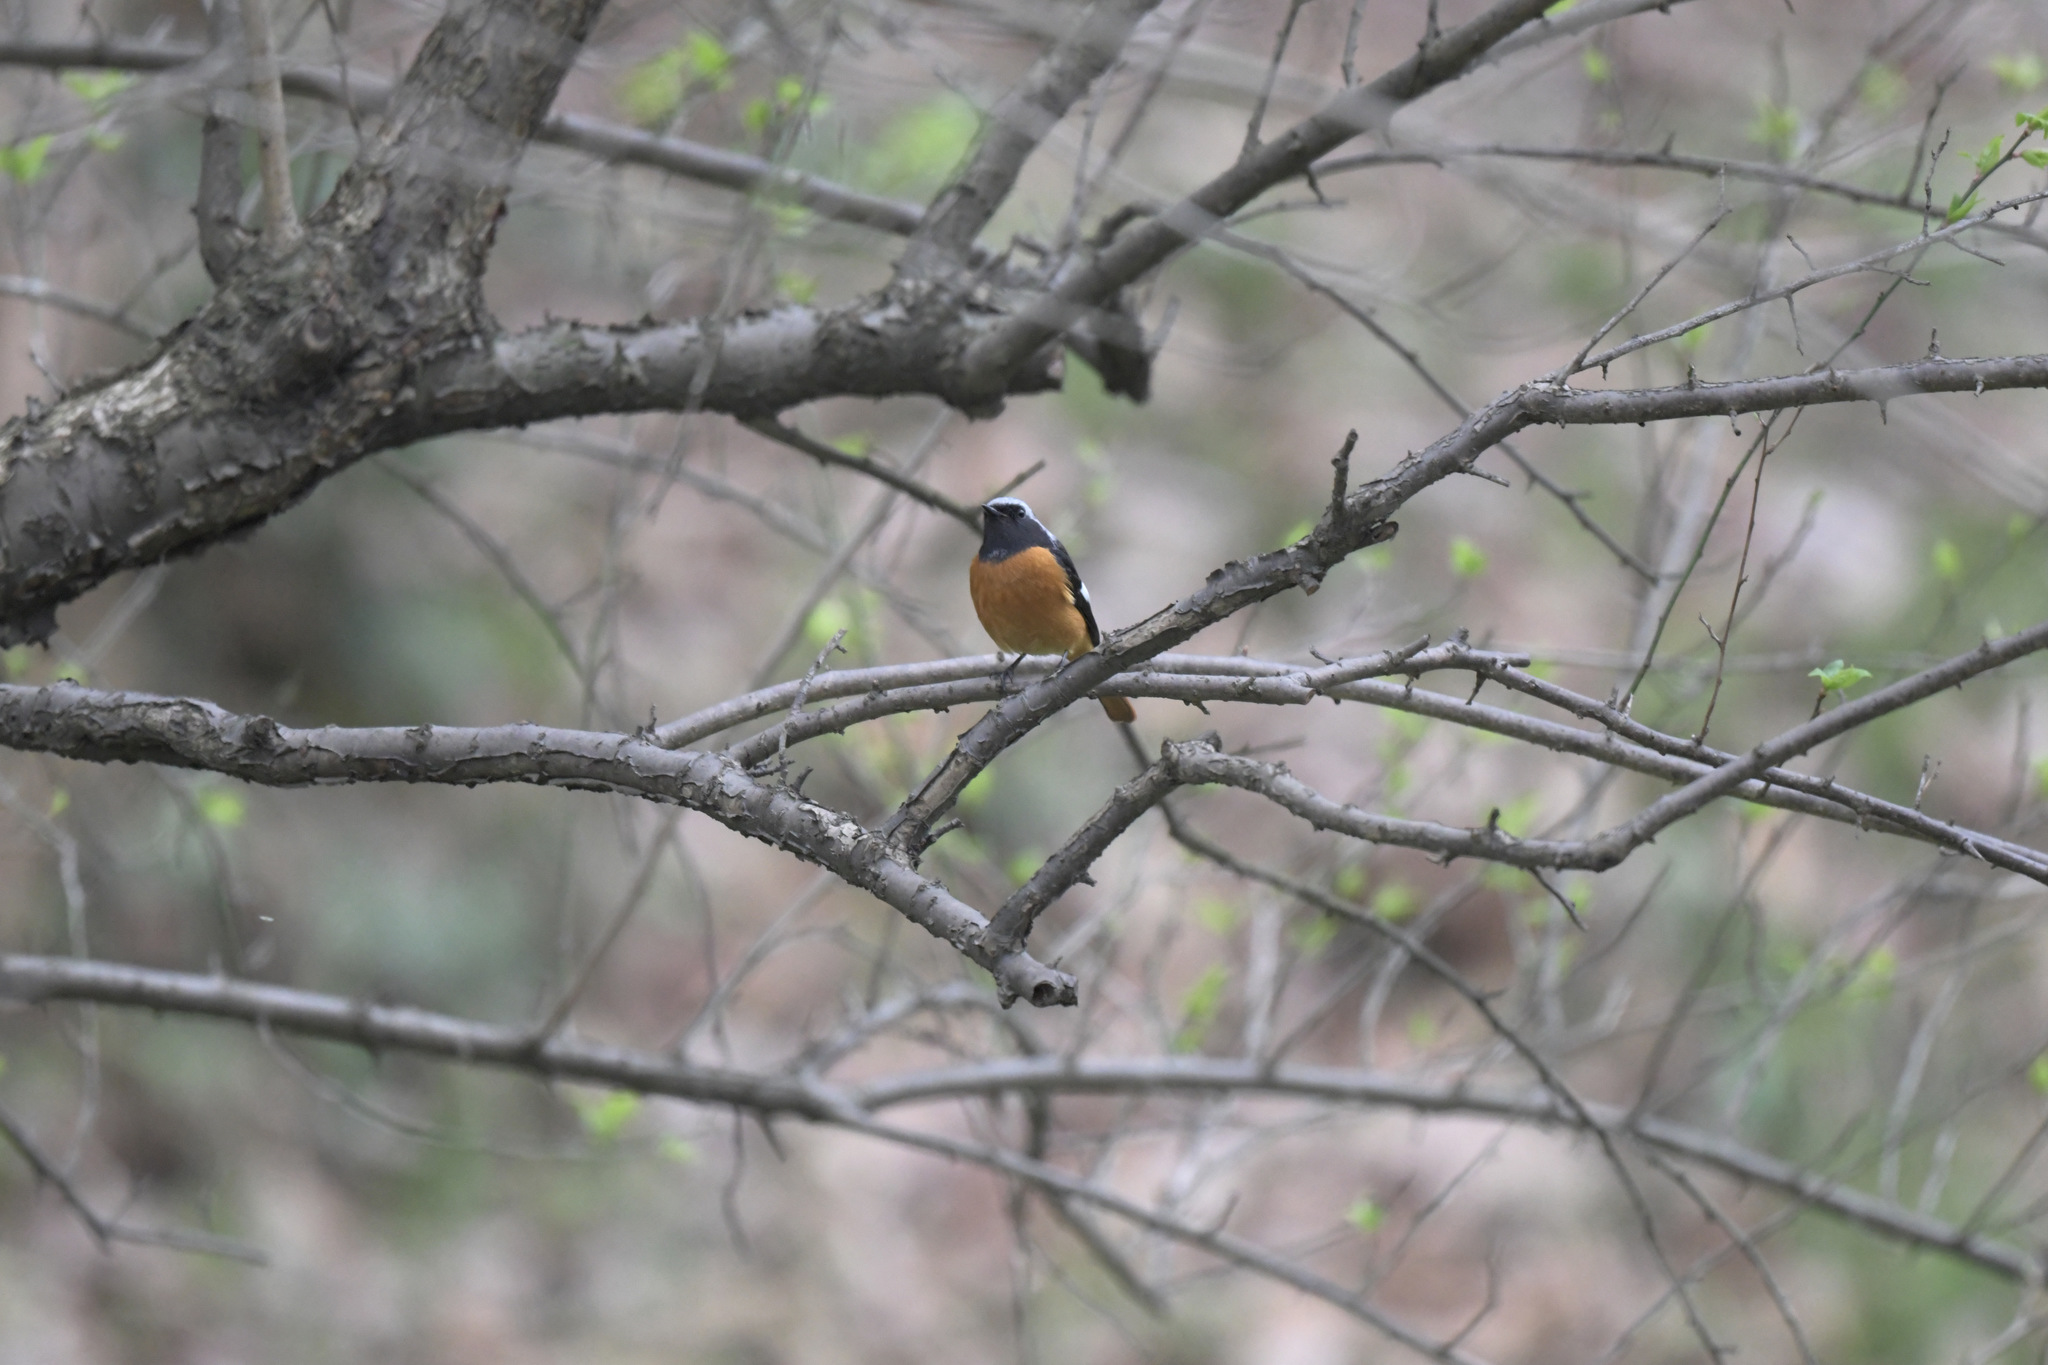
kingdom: Animalia
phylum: Chordata
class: Aves
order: Passeriformes
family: Muscicapidae
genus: Phoenicurus
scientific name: Phoenicurus auroreus
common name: Daurian redstart
